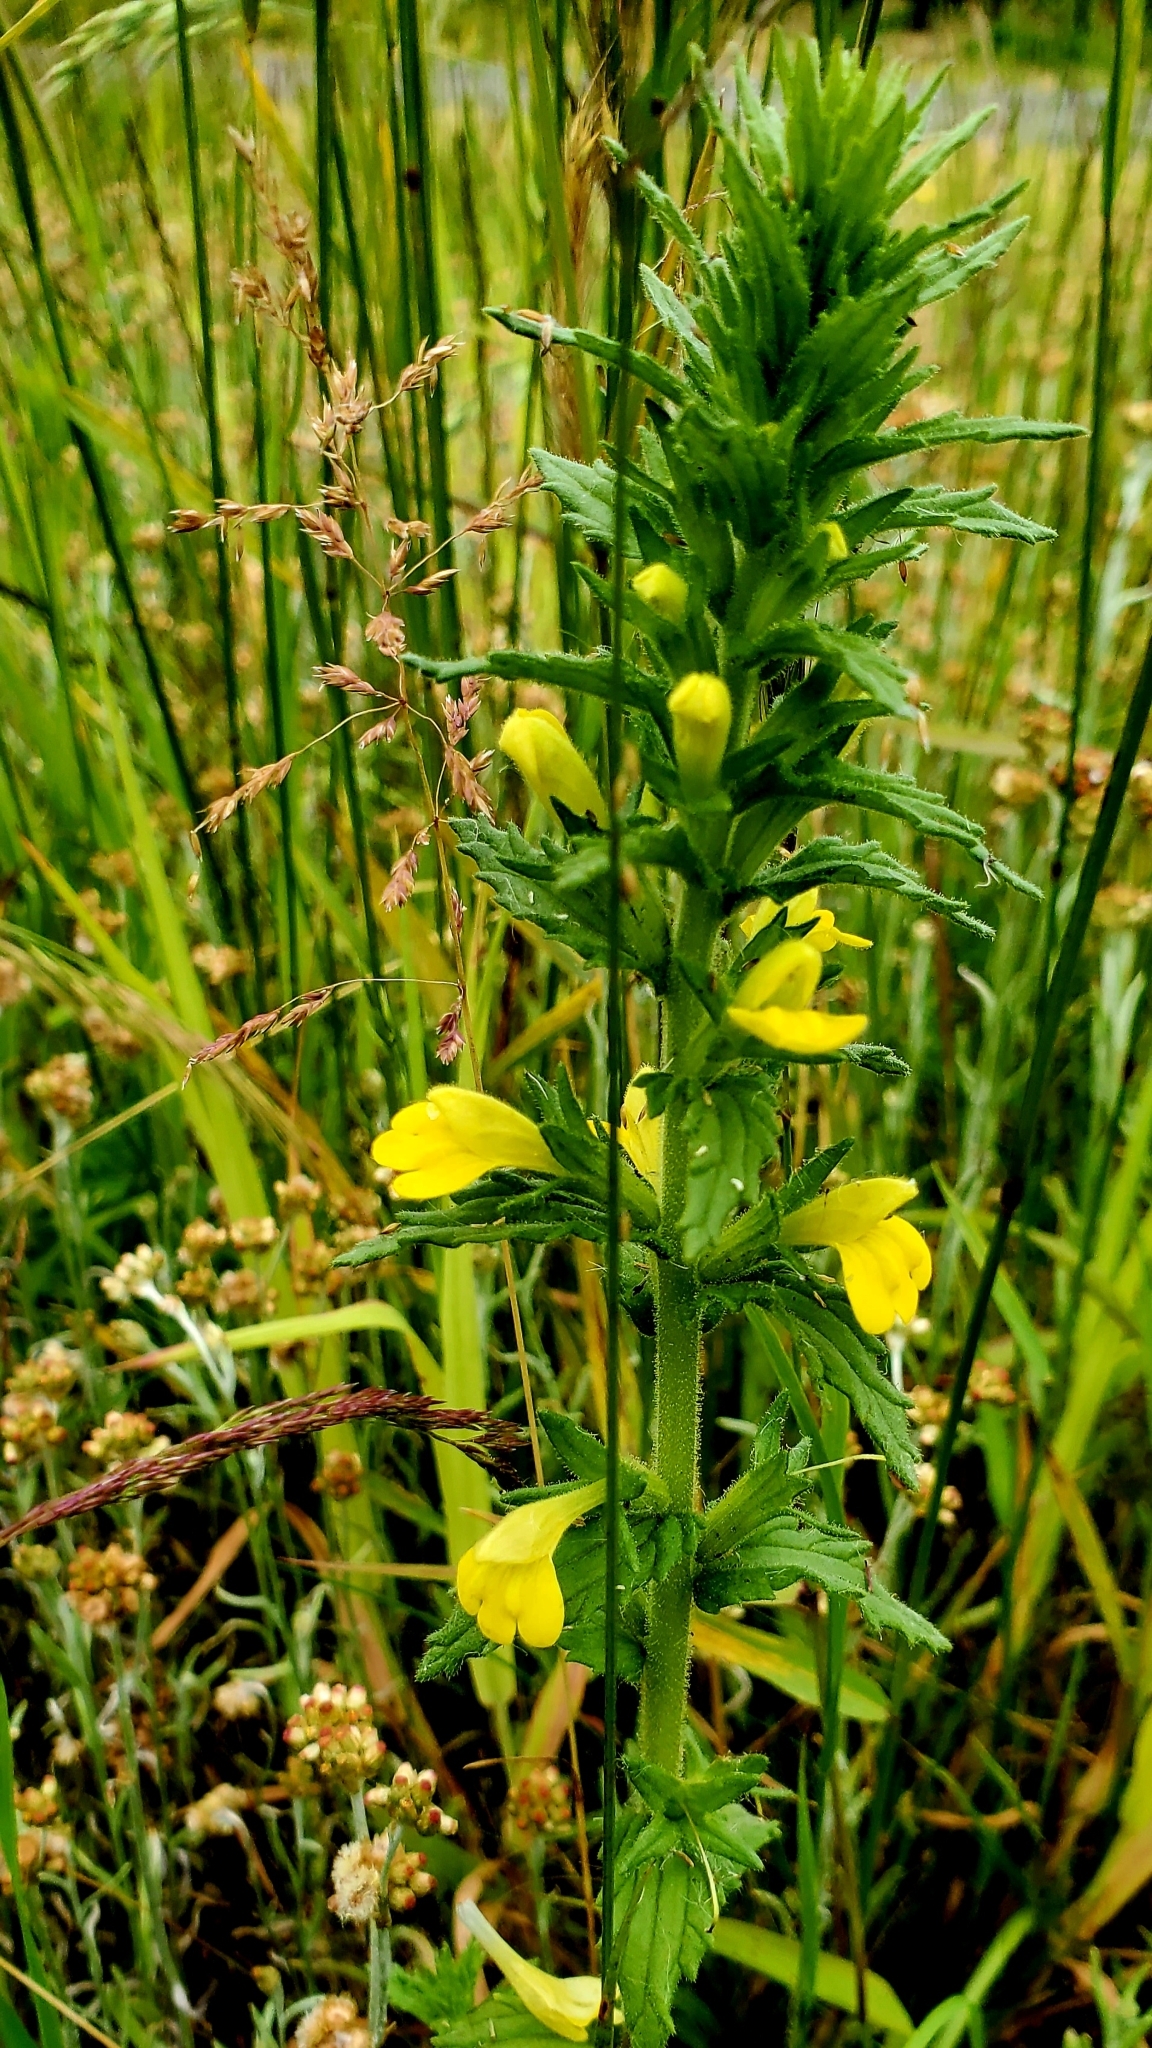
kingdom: Plantae
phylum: Tracheophyta
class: Magnoliopsida
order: Lamiales
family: Orobanchaceae
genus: Bellardia
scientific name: Bellardia viscosa
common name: Sticky parentucellia
